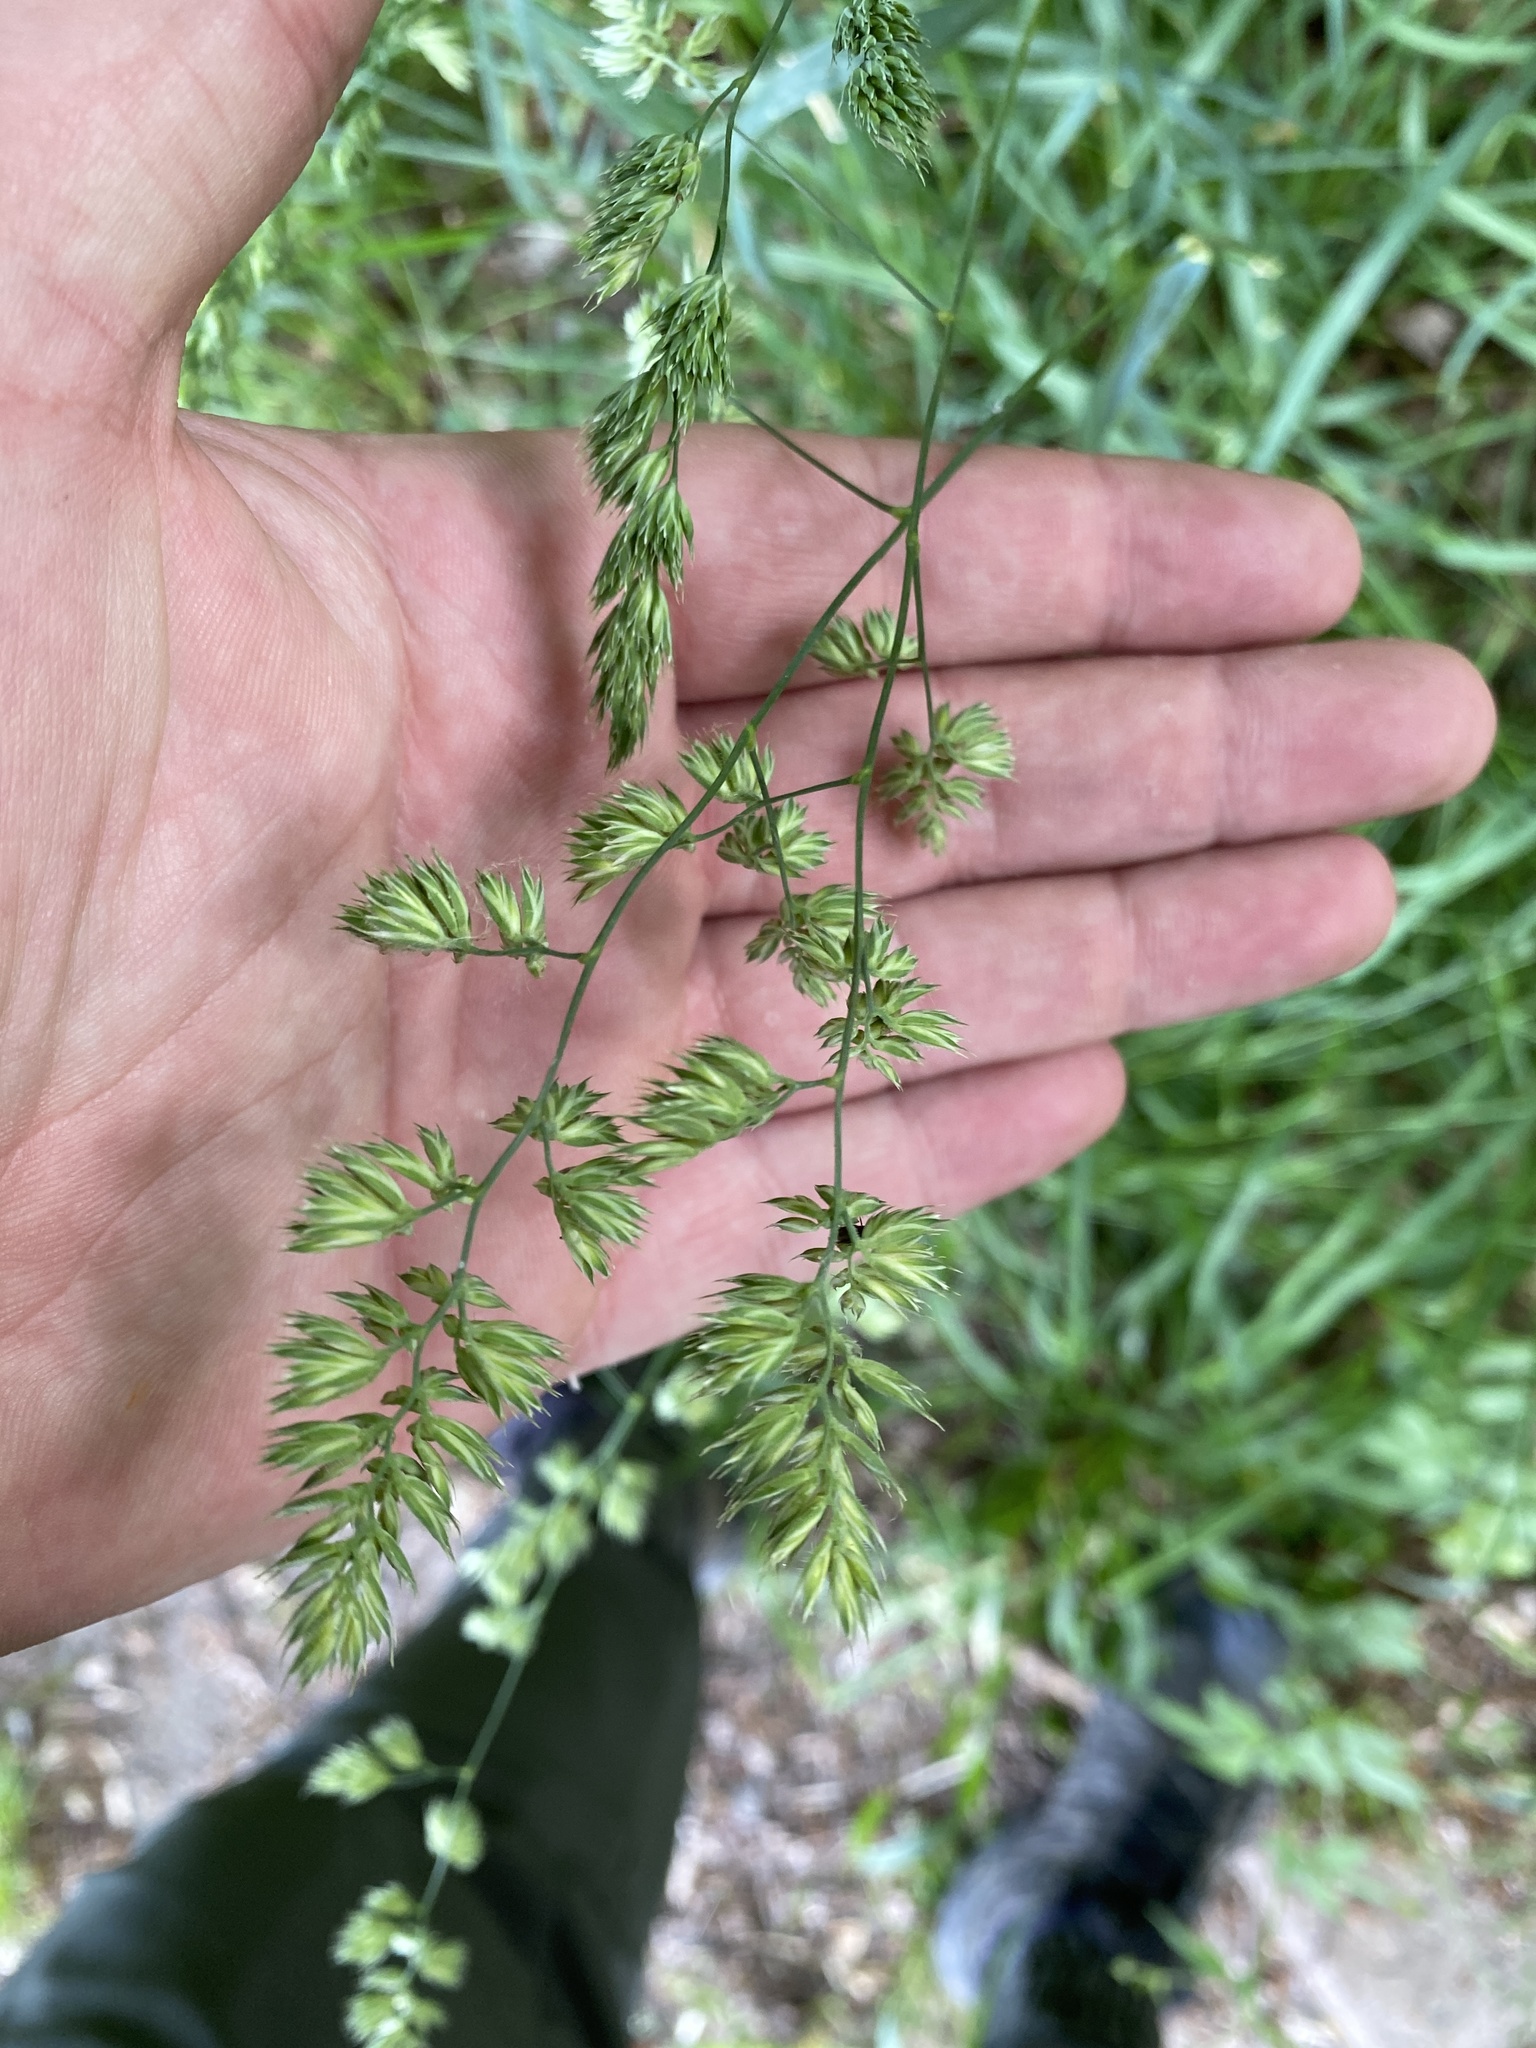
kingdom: Plantae
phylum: Tracheophyta
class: Liliopsida
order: Poales
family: Poaceae
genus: Dactylis
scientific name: Dactylis glomerata
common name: Orchardgrass
